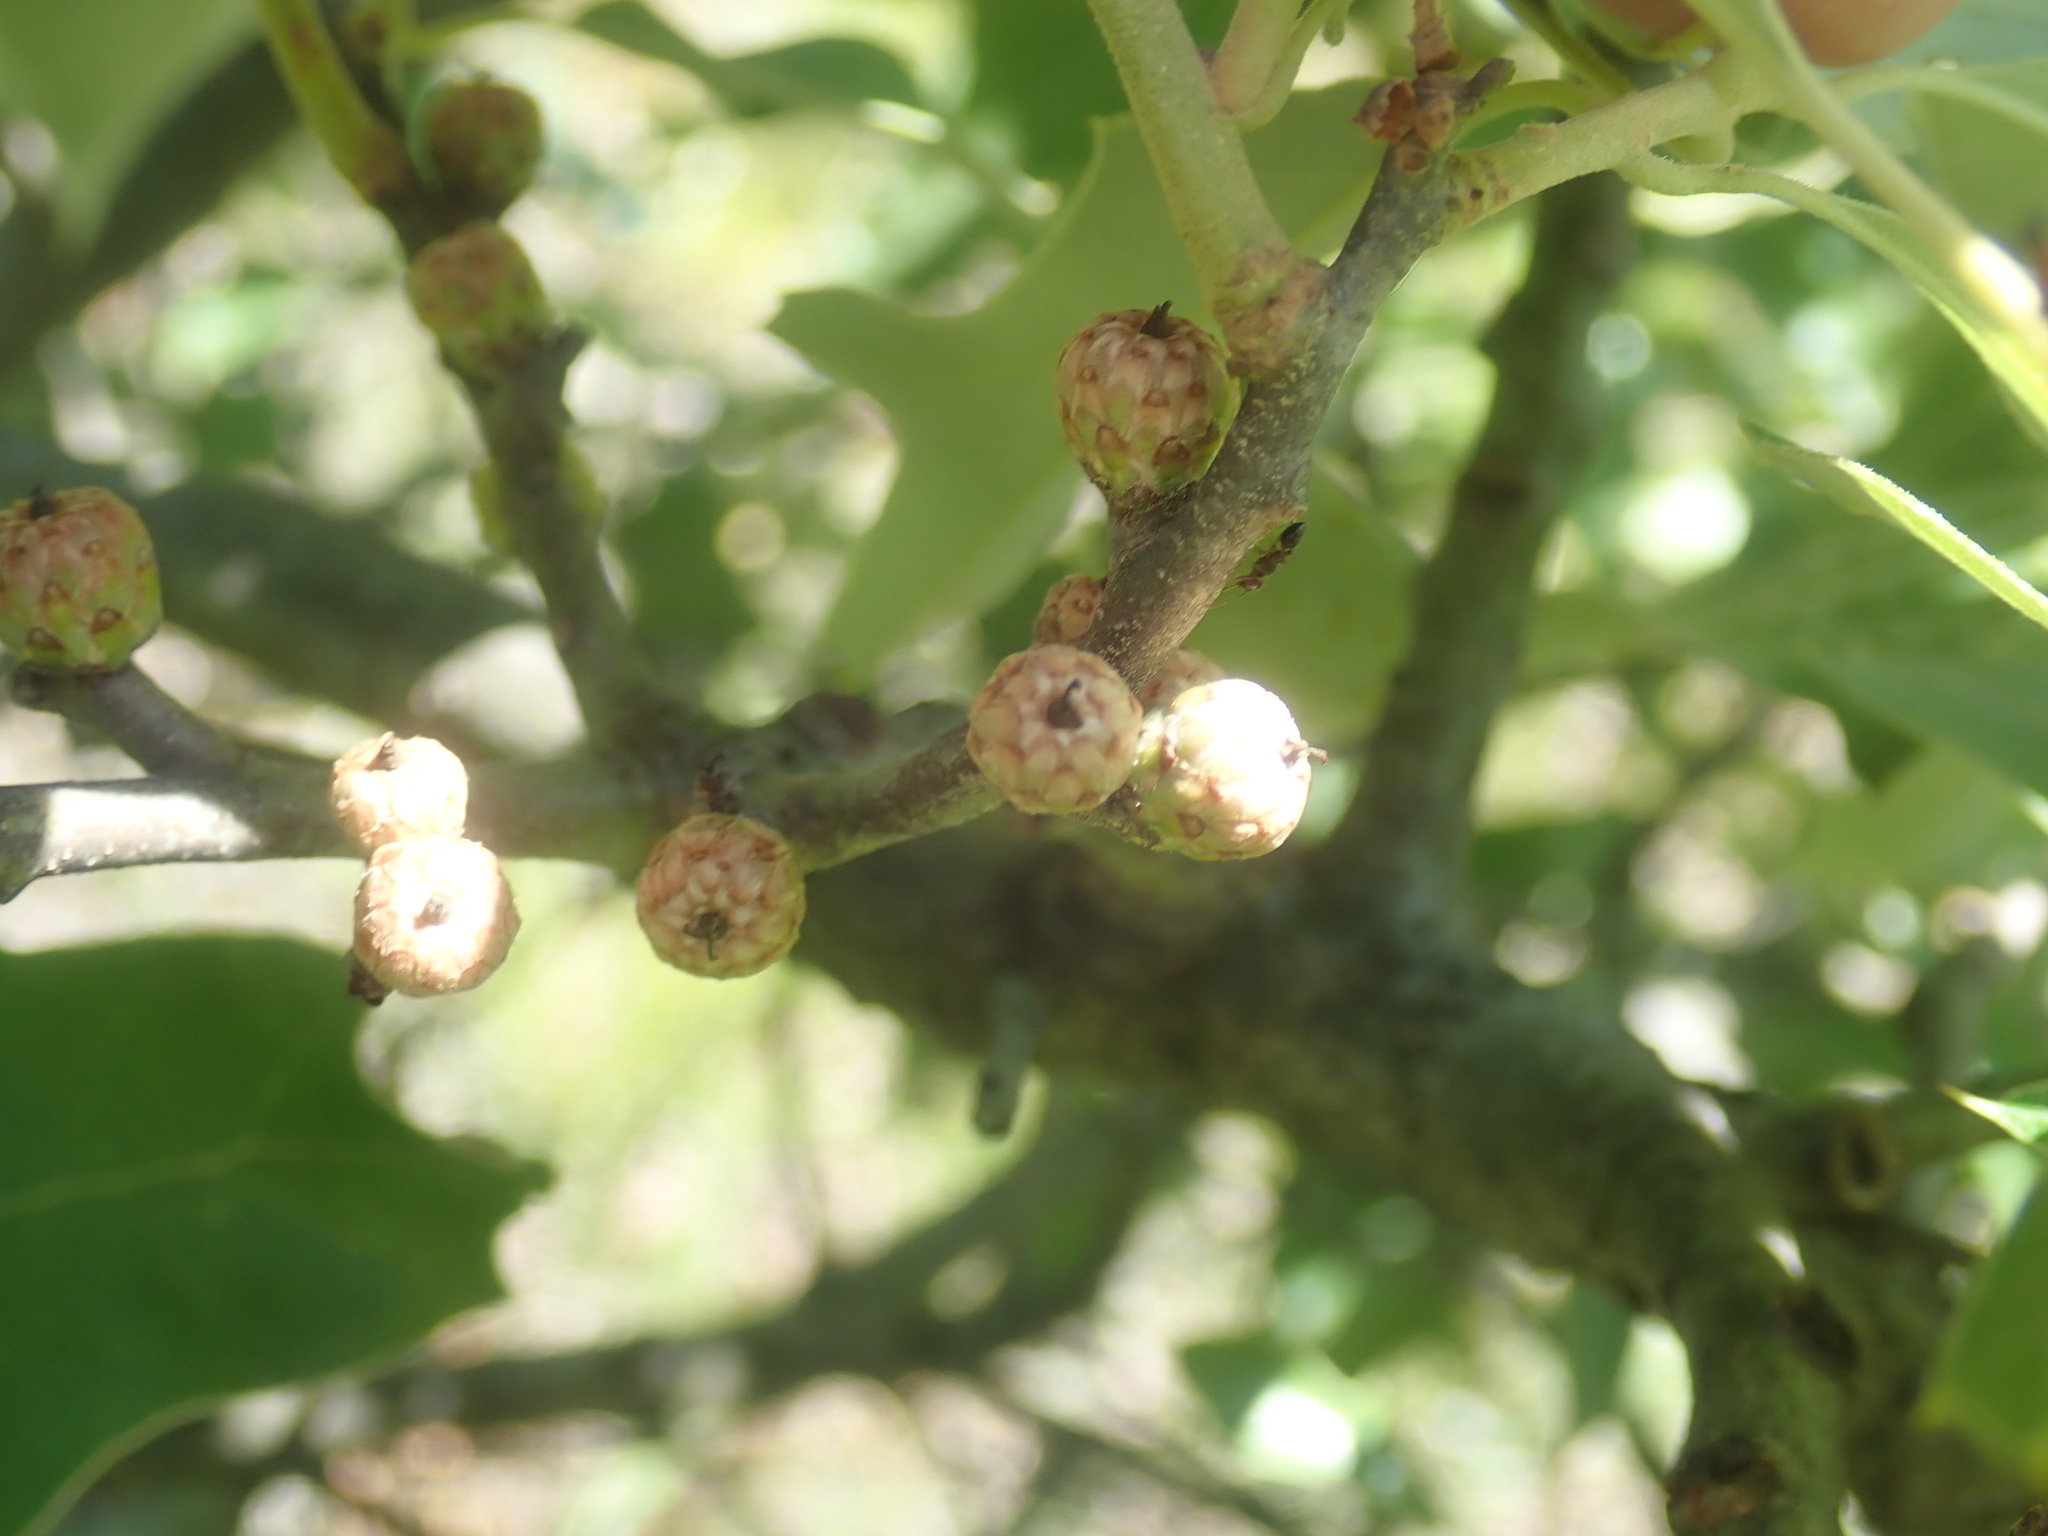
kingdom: Plantae
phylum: Tracheophyta
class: Magnoliopsida
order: Fagales
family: Fagaceae
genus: Quercus
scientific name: Quercus ilicifolia
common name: Bear oak
